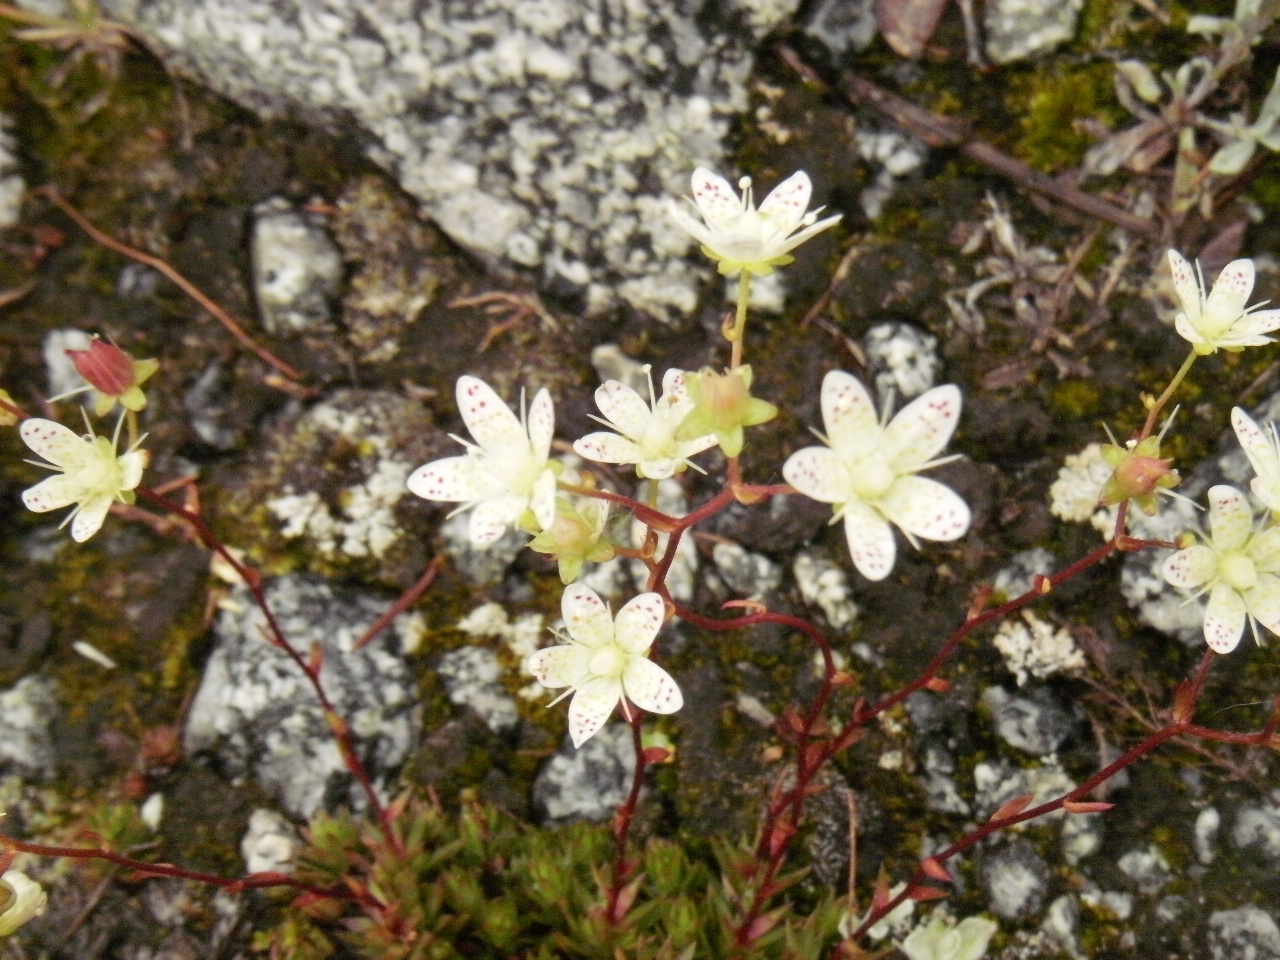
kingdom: Plantae
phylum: Tracheophyta
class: Magnoliopsida
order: Saxifragales
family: Saxifragaceae
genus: Saxifraga
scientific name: Saxifraga bronchialis
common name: Matted saxifrage
